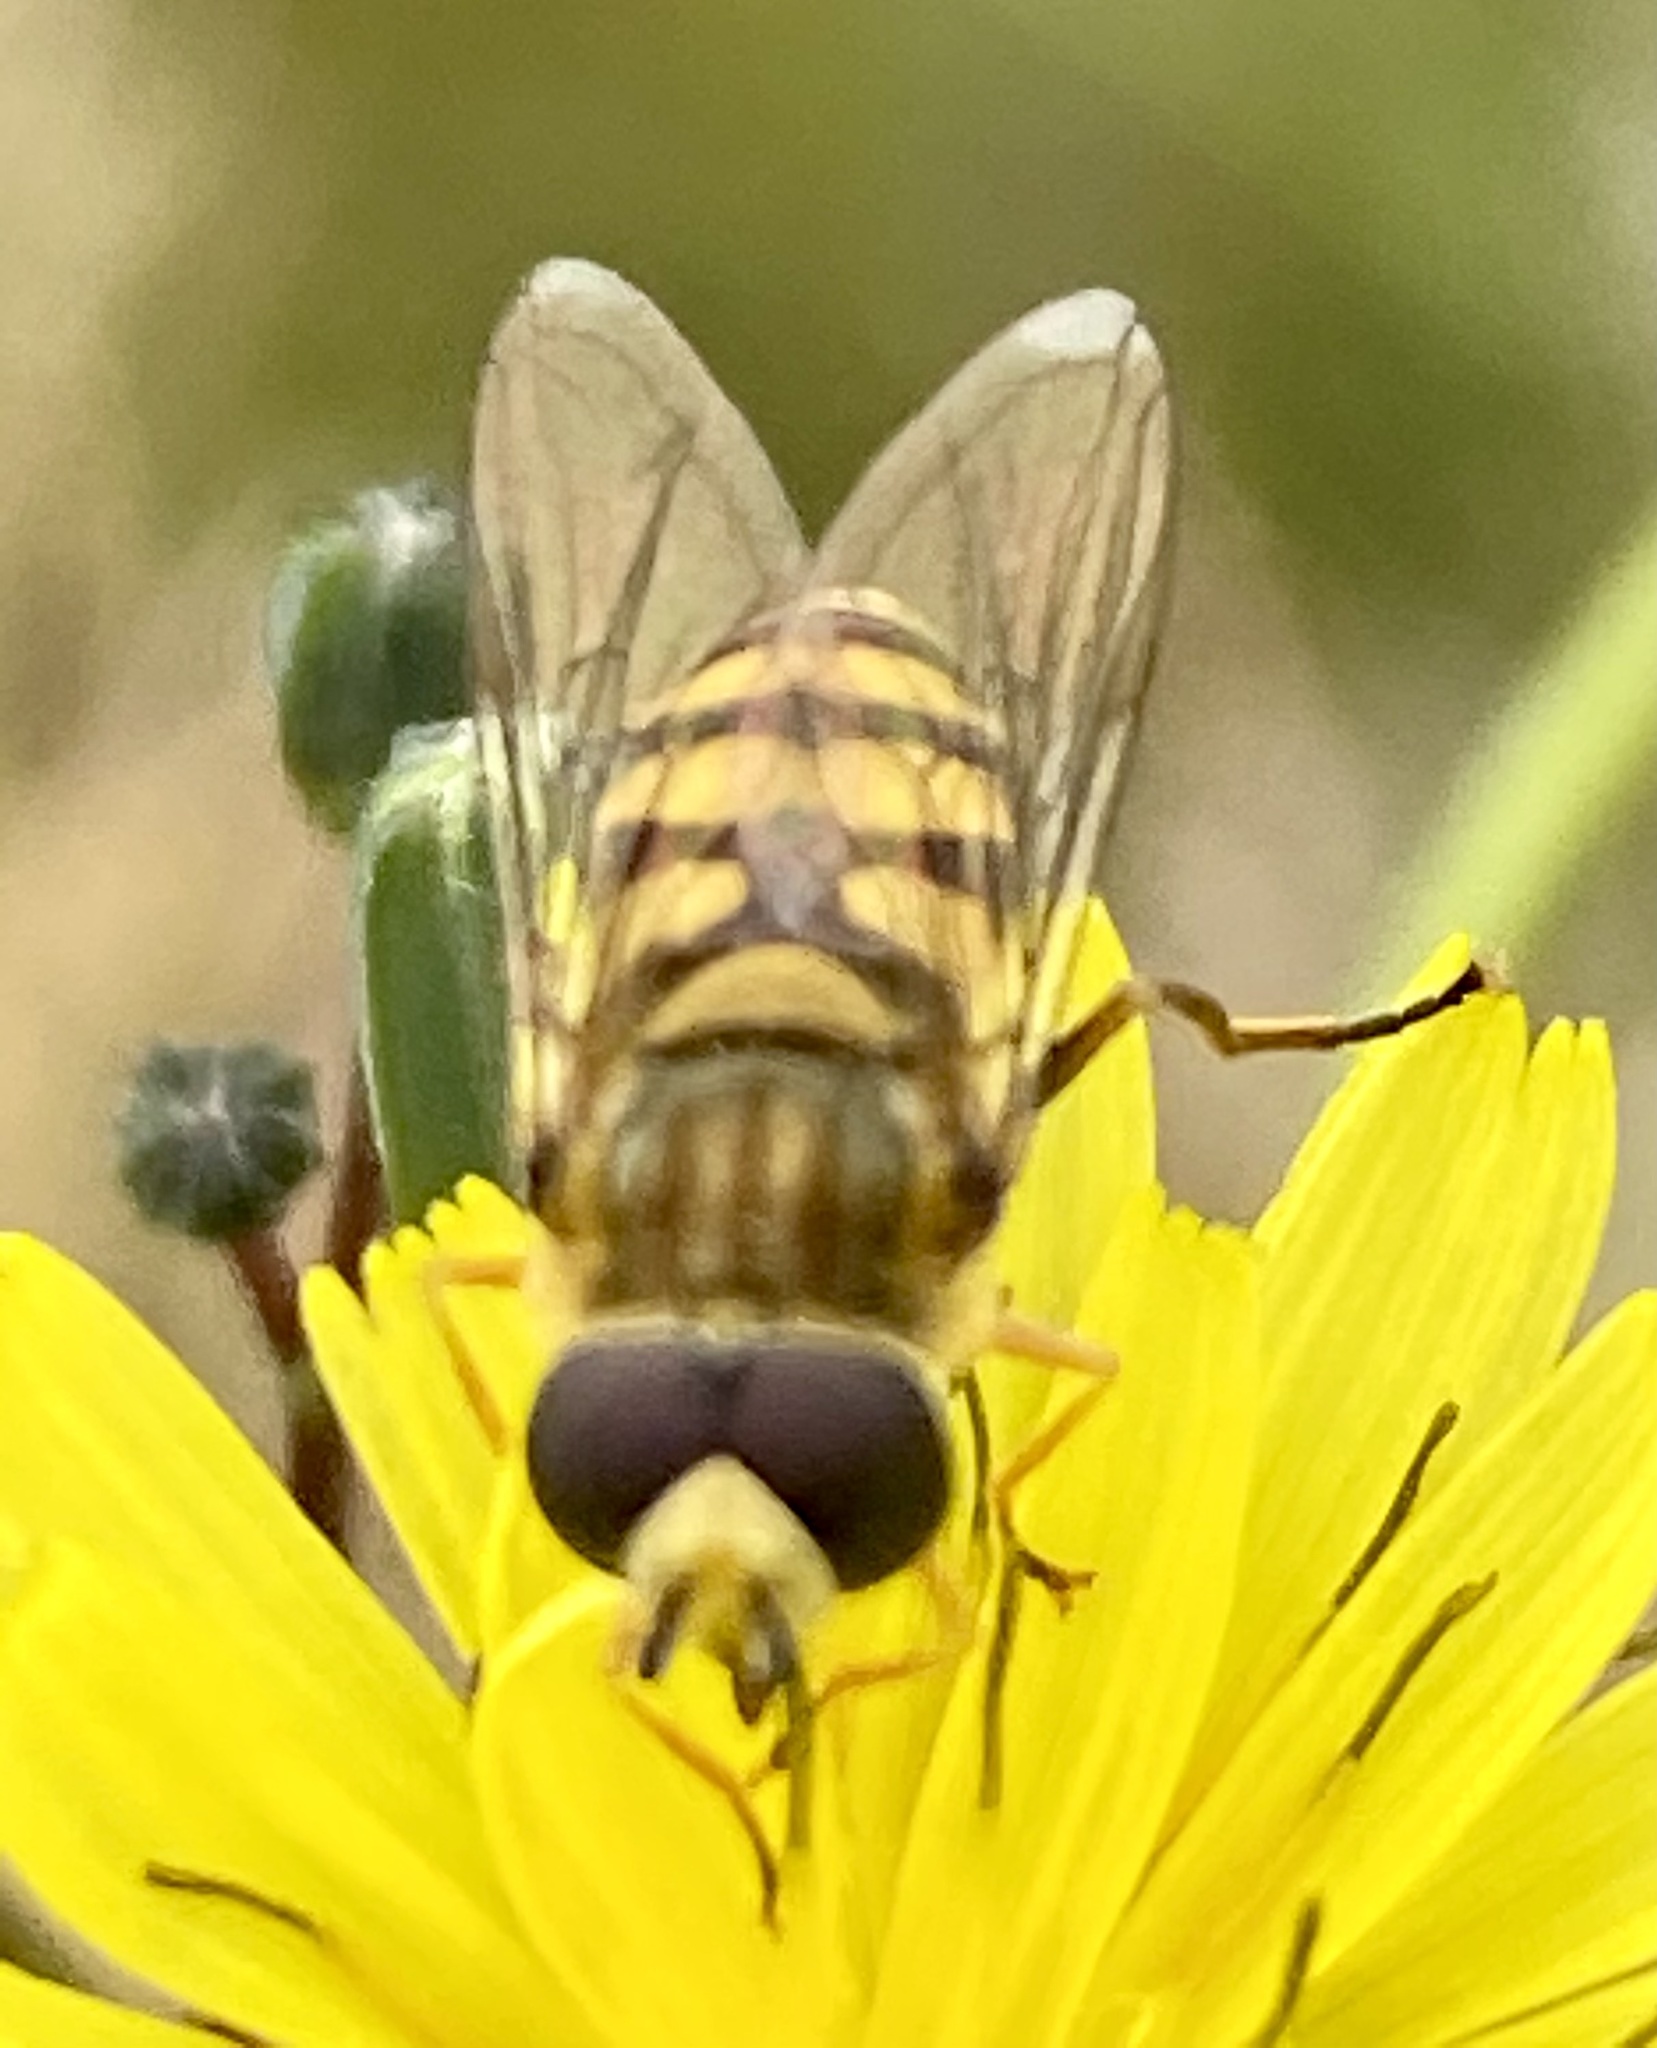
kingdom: Animalia
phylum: Arthropoda
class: Insecta
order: Diptera
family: Syrphidae
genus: Eupeodes
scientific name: Eupeodes corollae
